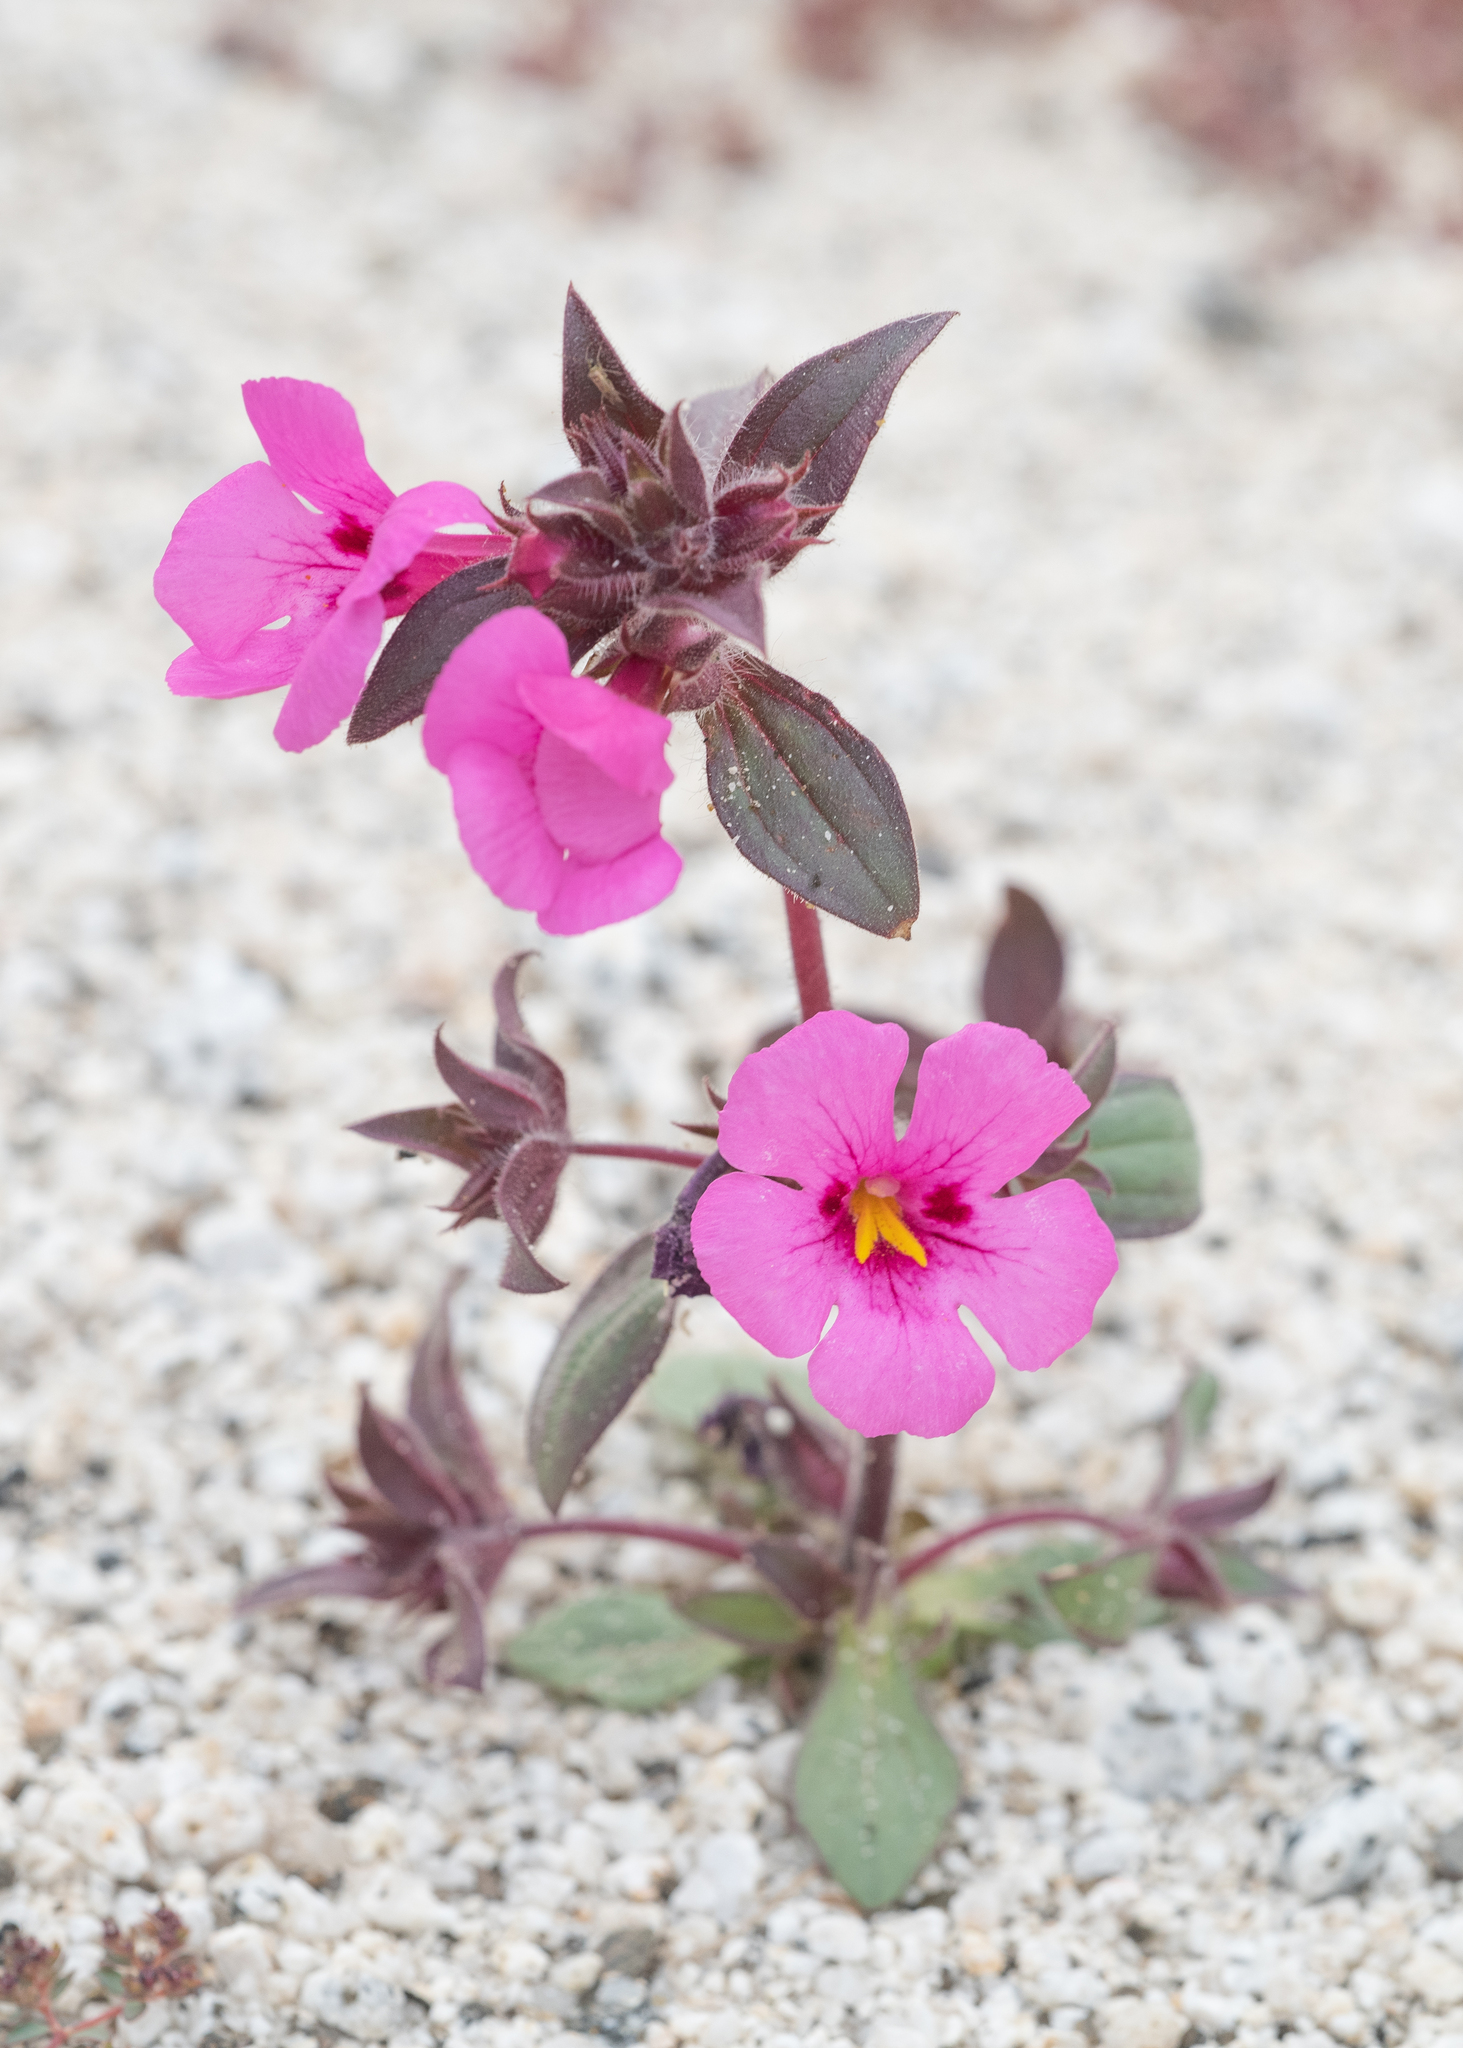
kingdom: Plantae
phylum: Tracheophyta
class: Magnoliopsida
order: Lamiales
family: Phrymaceae
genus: Diplacus
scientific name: Diplacus bigelovii
